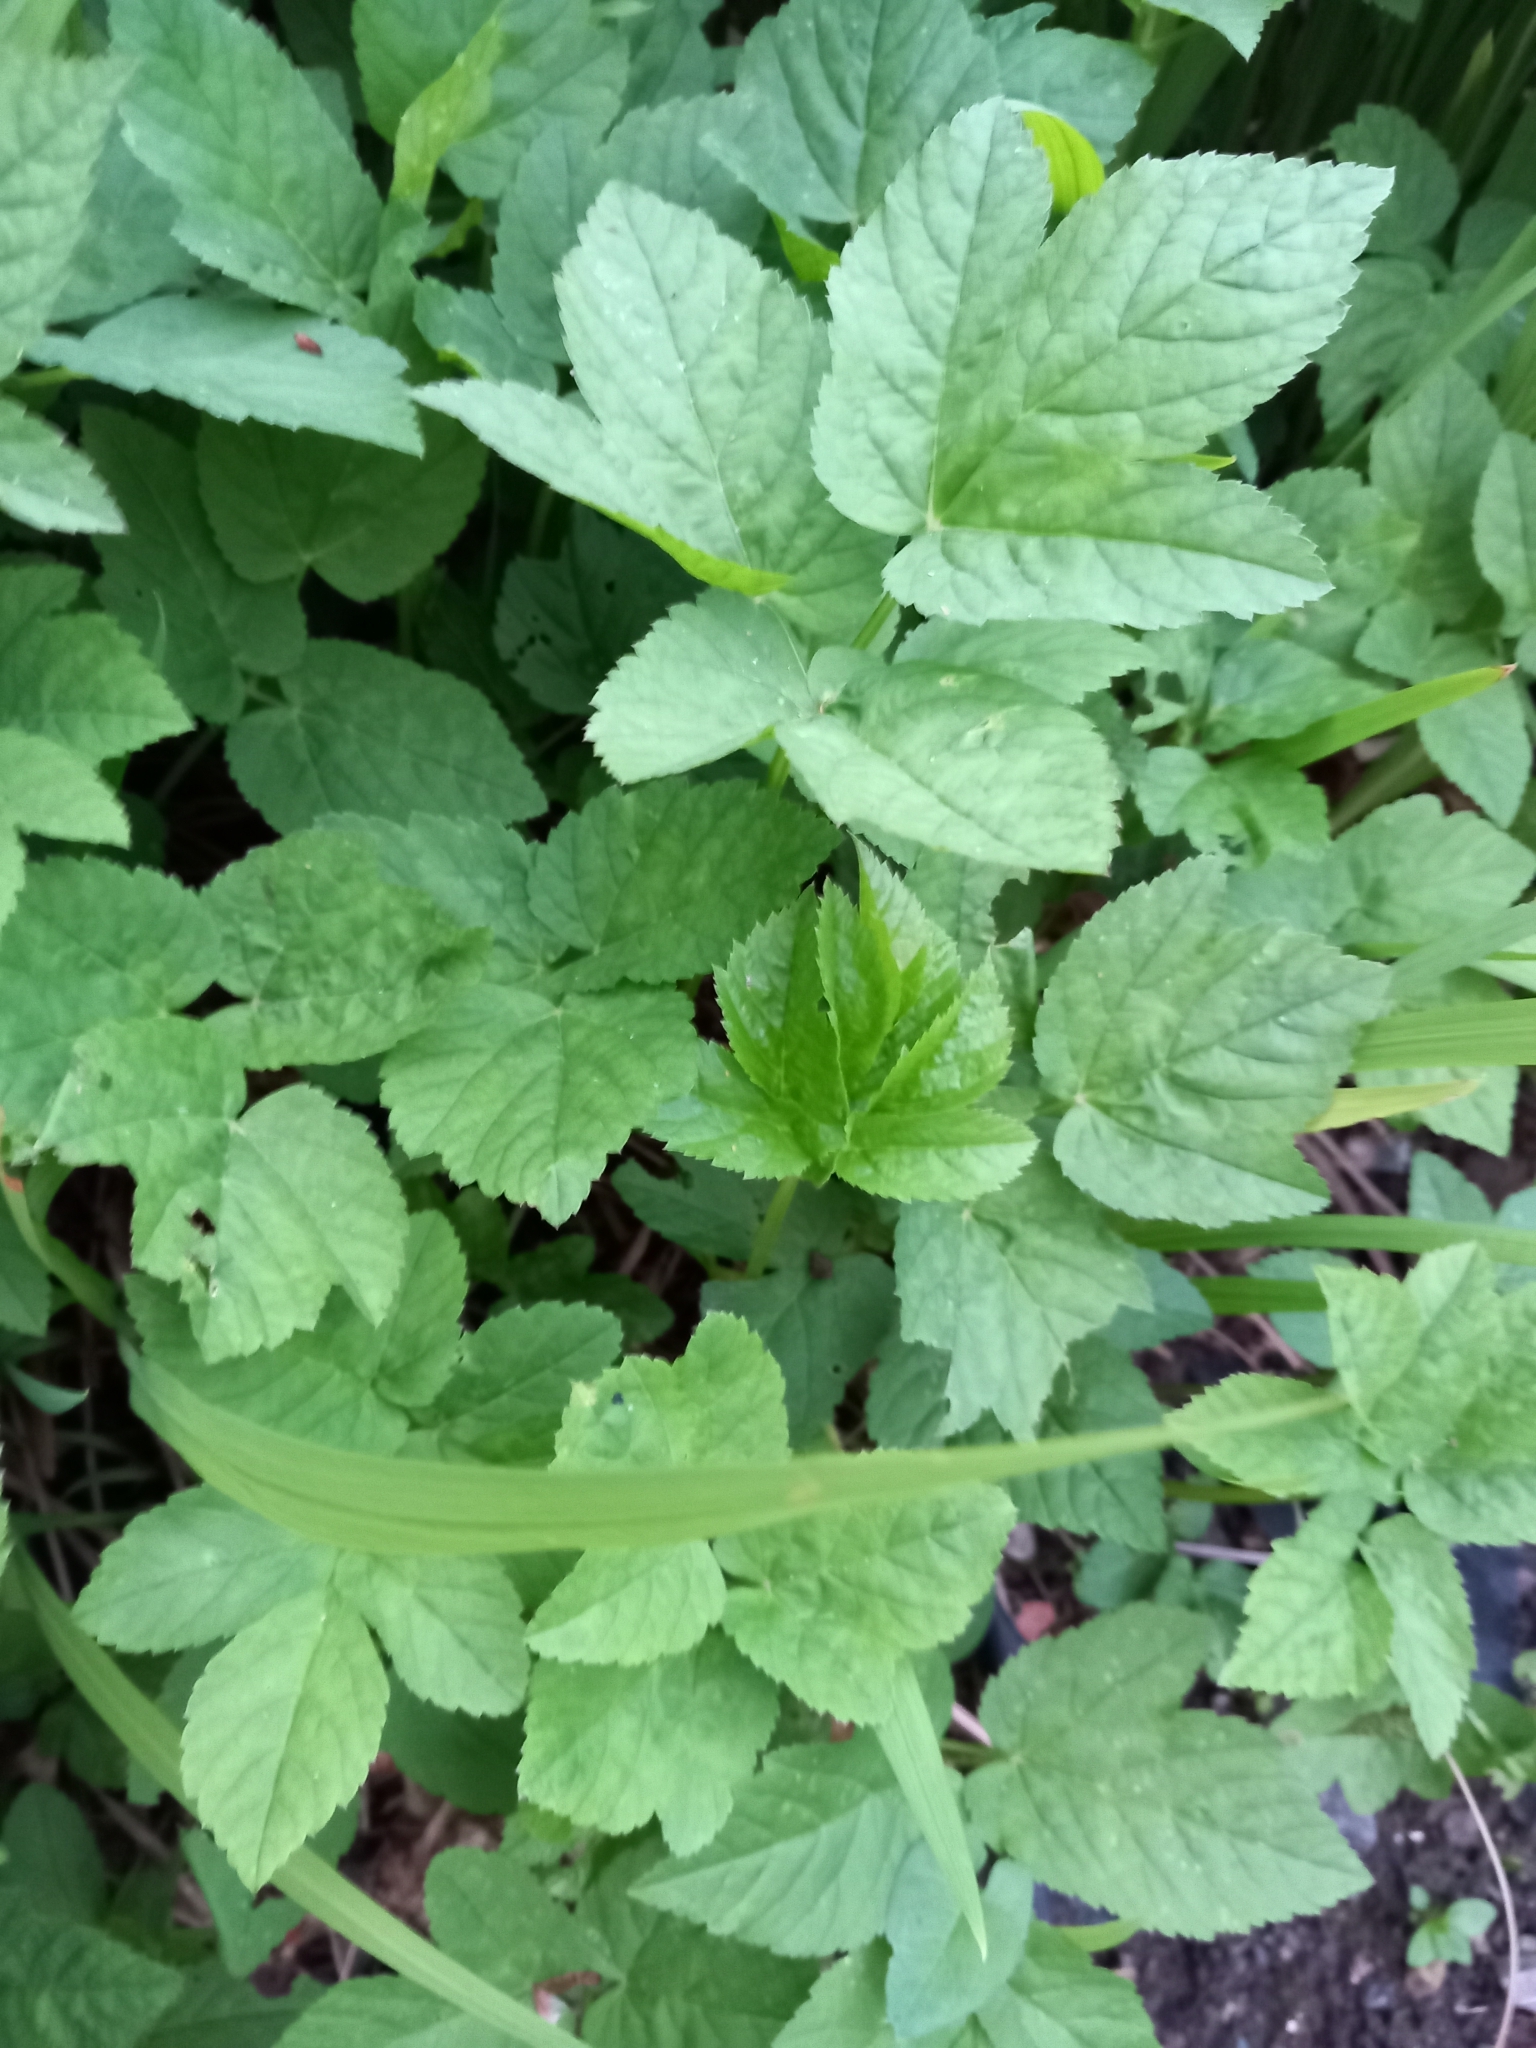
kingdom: Plantae
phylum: Tracheophyta
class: Magnoliopsida
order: Apiales
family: Apiaceae
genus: Aegopodium
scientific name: Aegopodium podagraria
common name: Ground-elder
